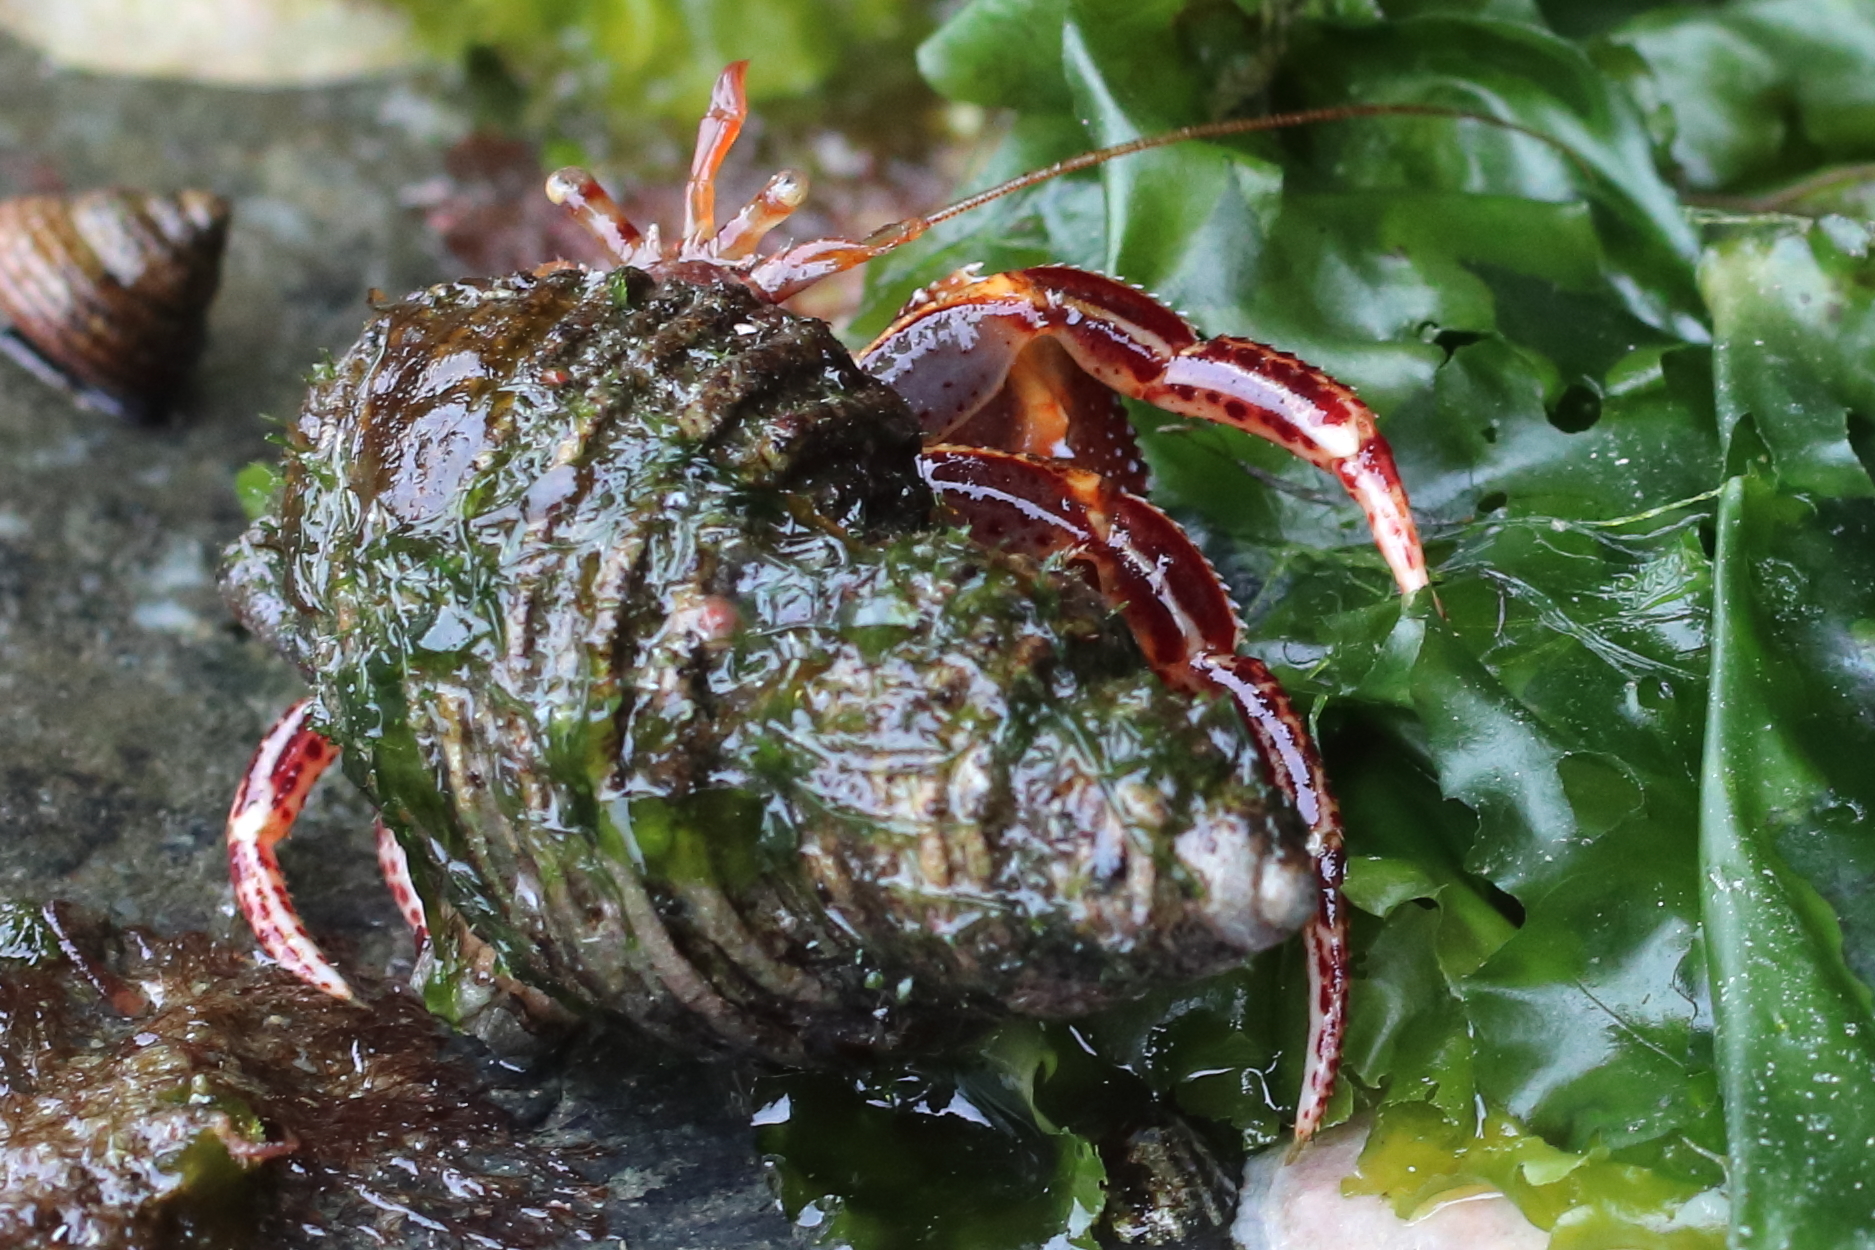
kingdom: Animalia
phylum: Arthropoda
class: Malacostraca
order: Decapoda
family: Paguridae
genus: Elassochirus
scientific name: Elassochirus tenuimanus
